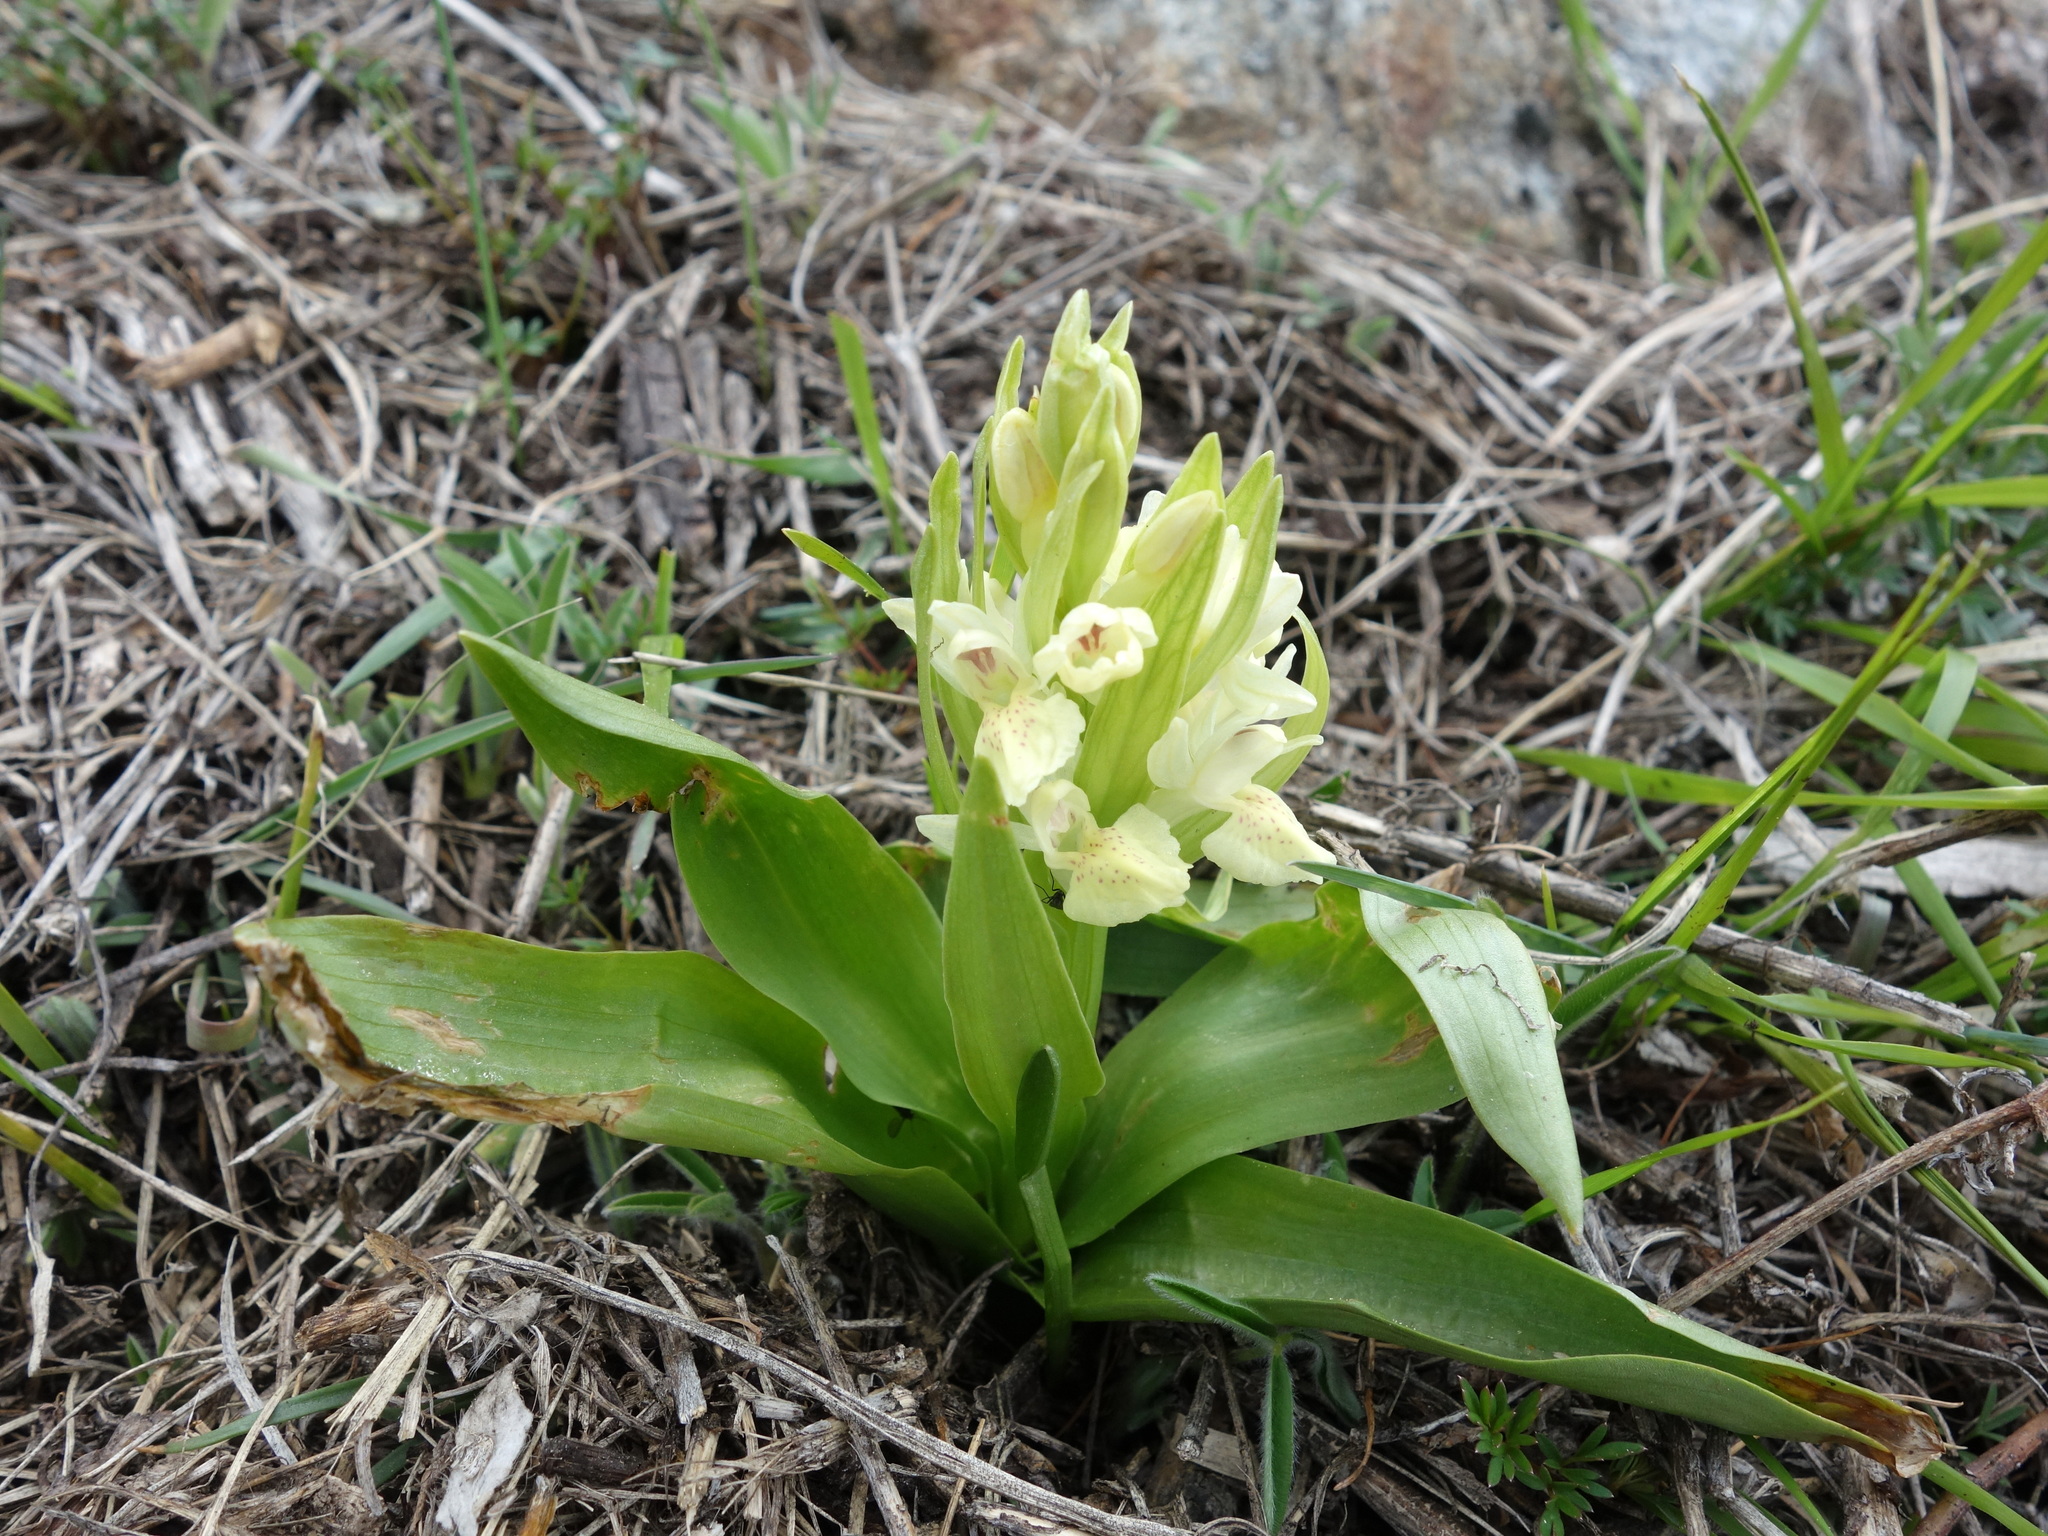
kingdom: Plantae
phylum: Tracheophyta
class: Liliopsida
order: Asparagales
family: Orchidaceae
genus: Dactylorhiza
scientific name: Dactylorhiza sambucina
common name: Elder-flowered orchid
